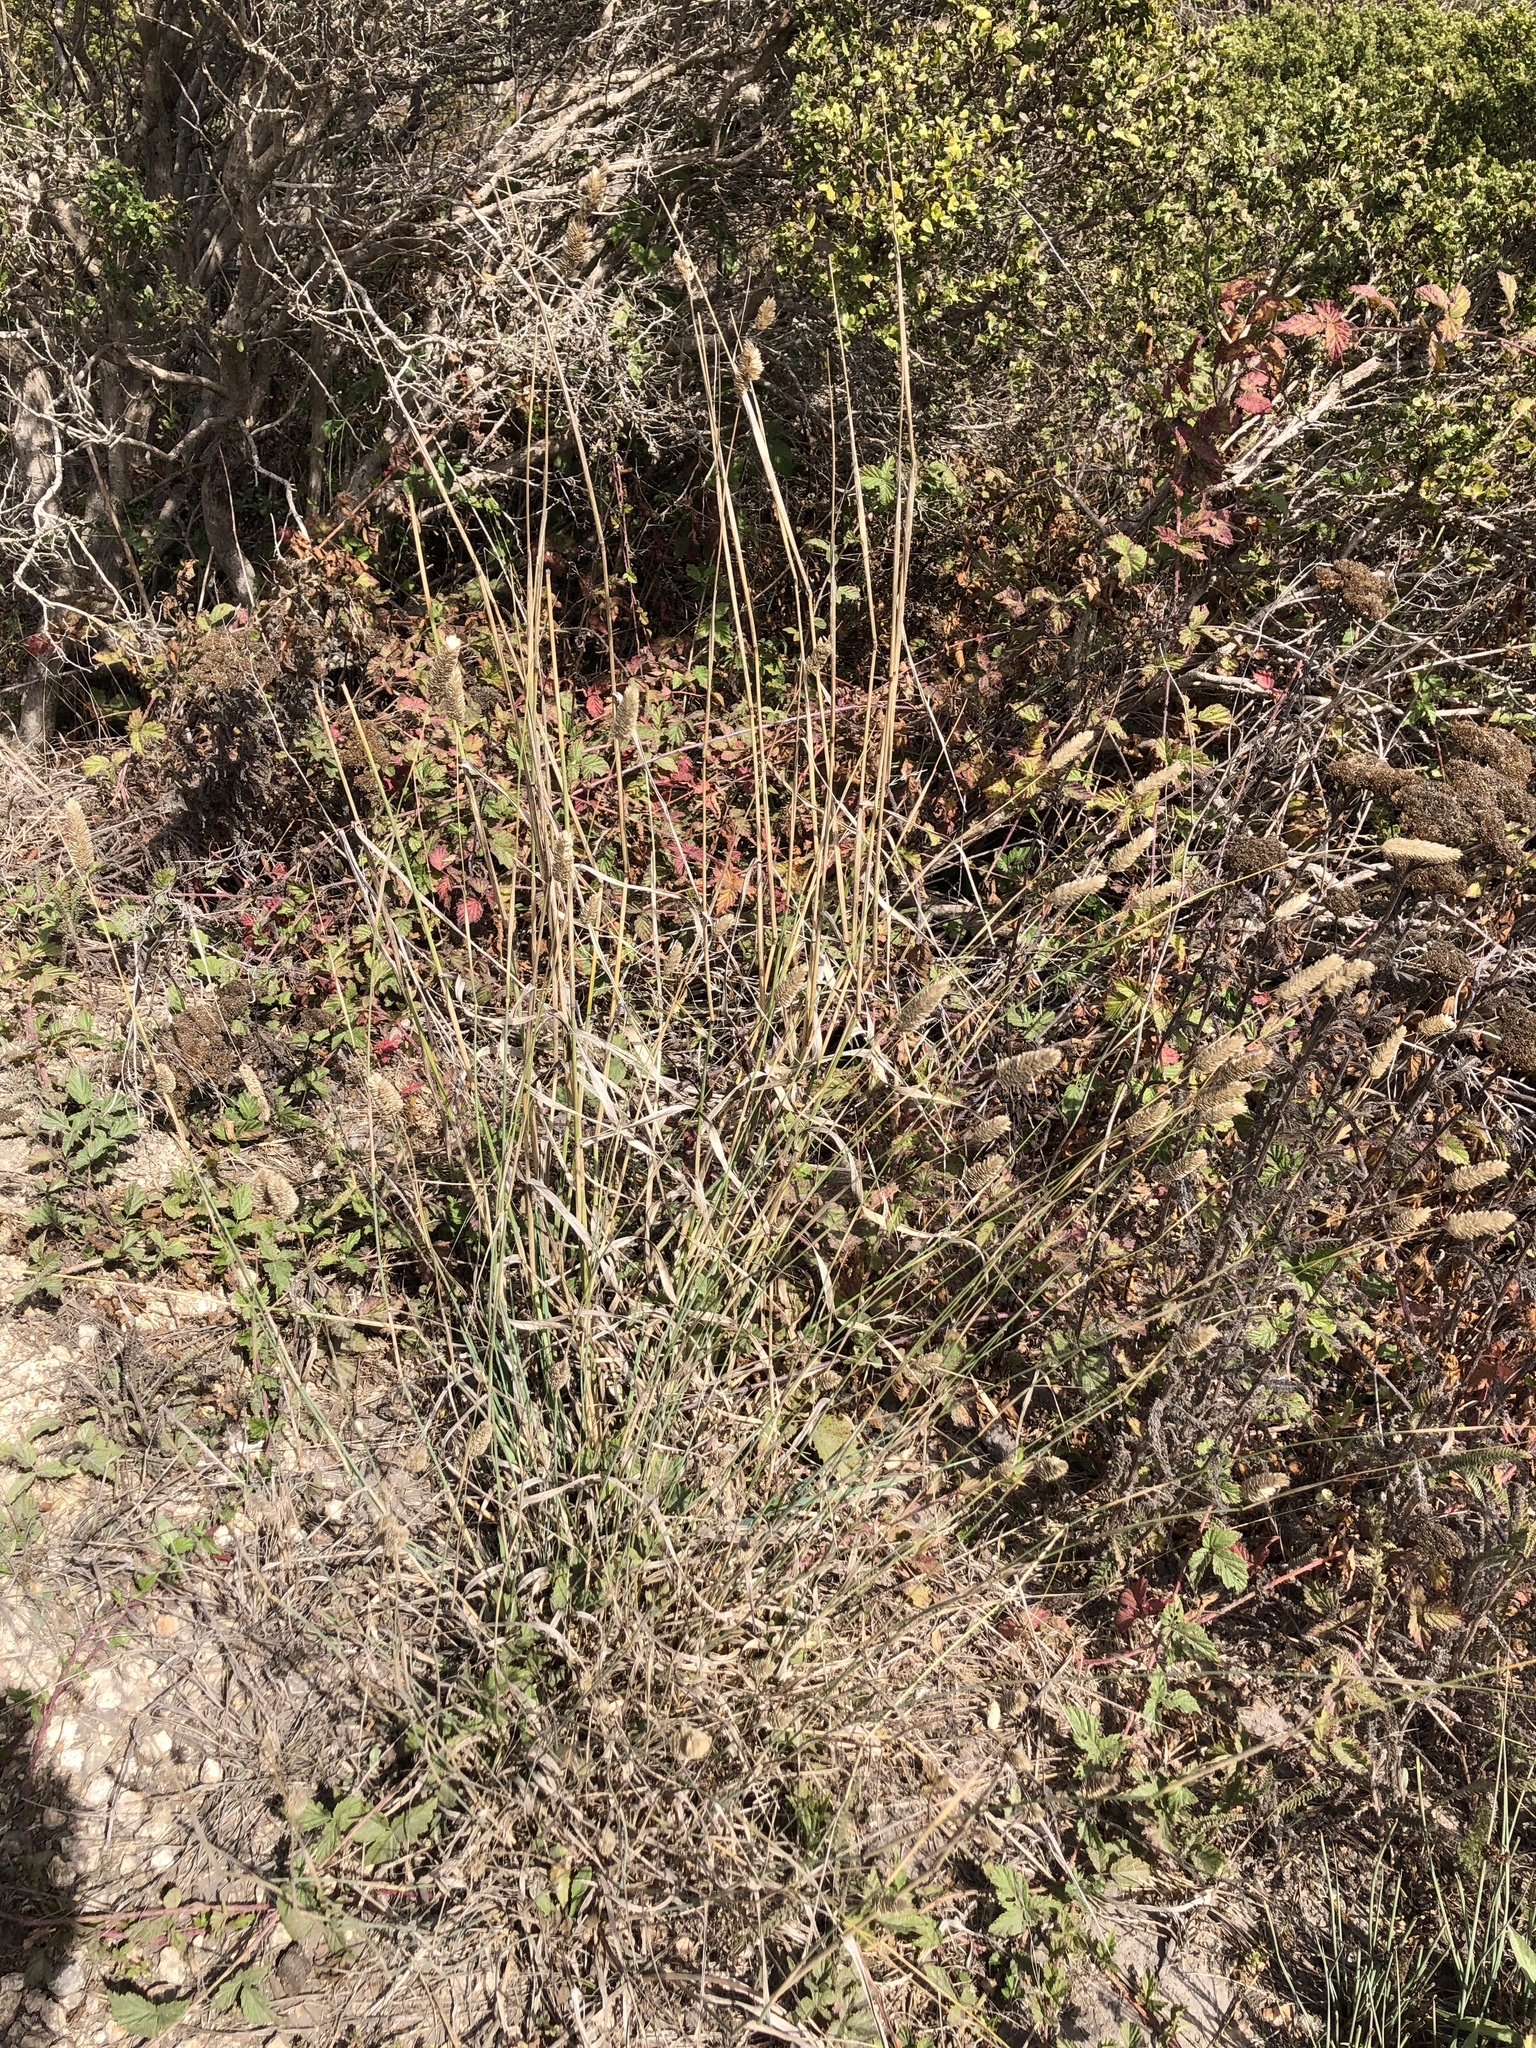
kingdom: Plantae
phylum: Tracheophyta
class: Liliopsida
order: Poales
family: Poaceae
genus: Phalaris
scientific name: Phalaris aquatica
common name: Bulbous canary-grass
